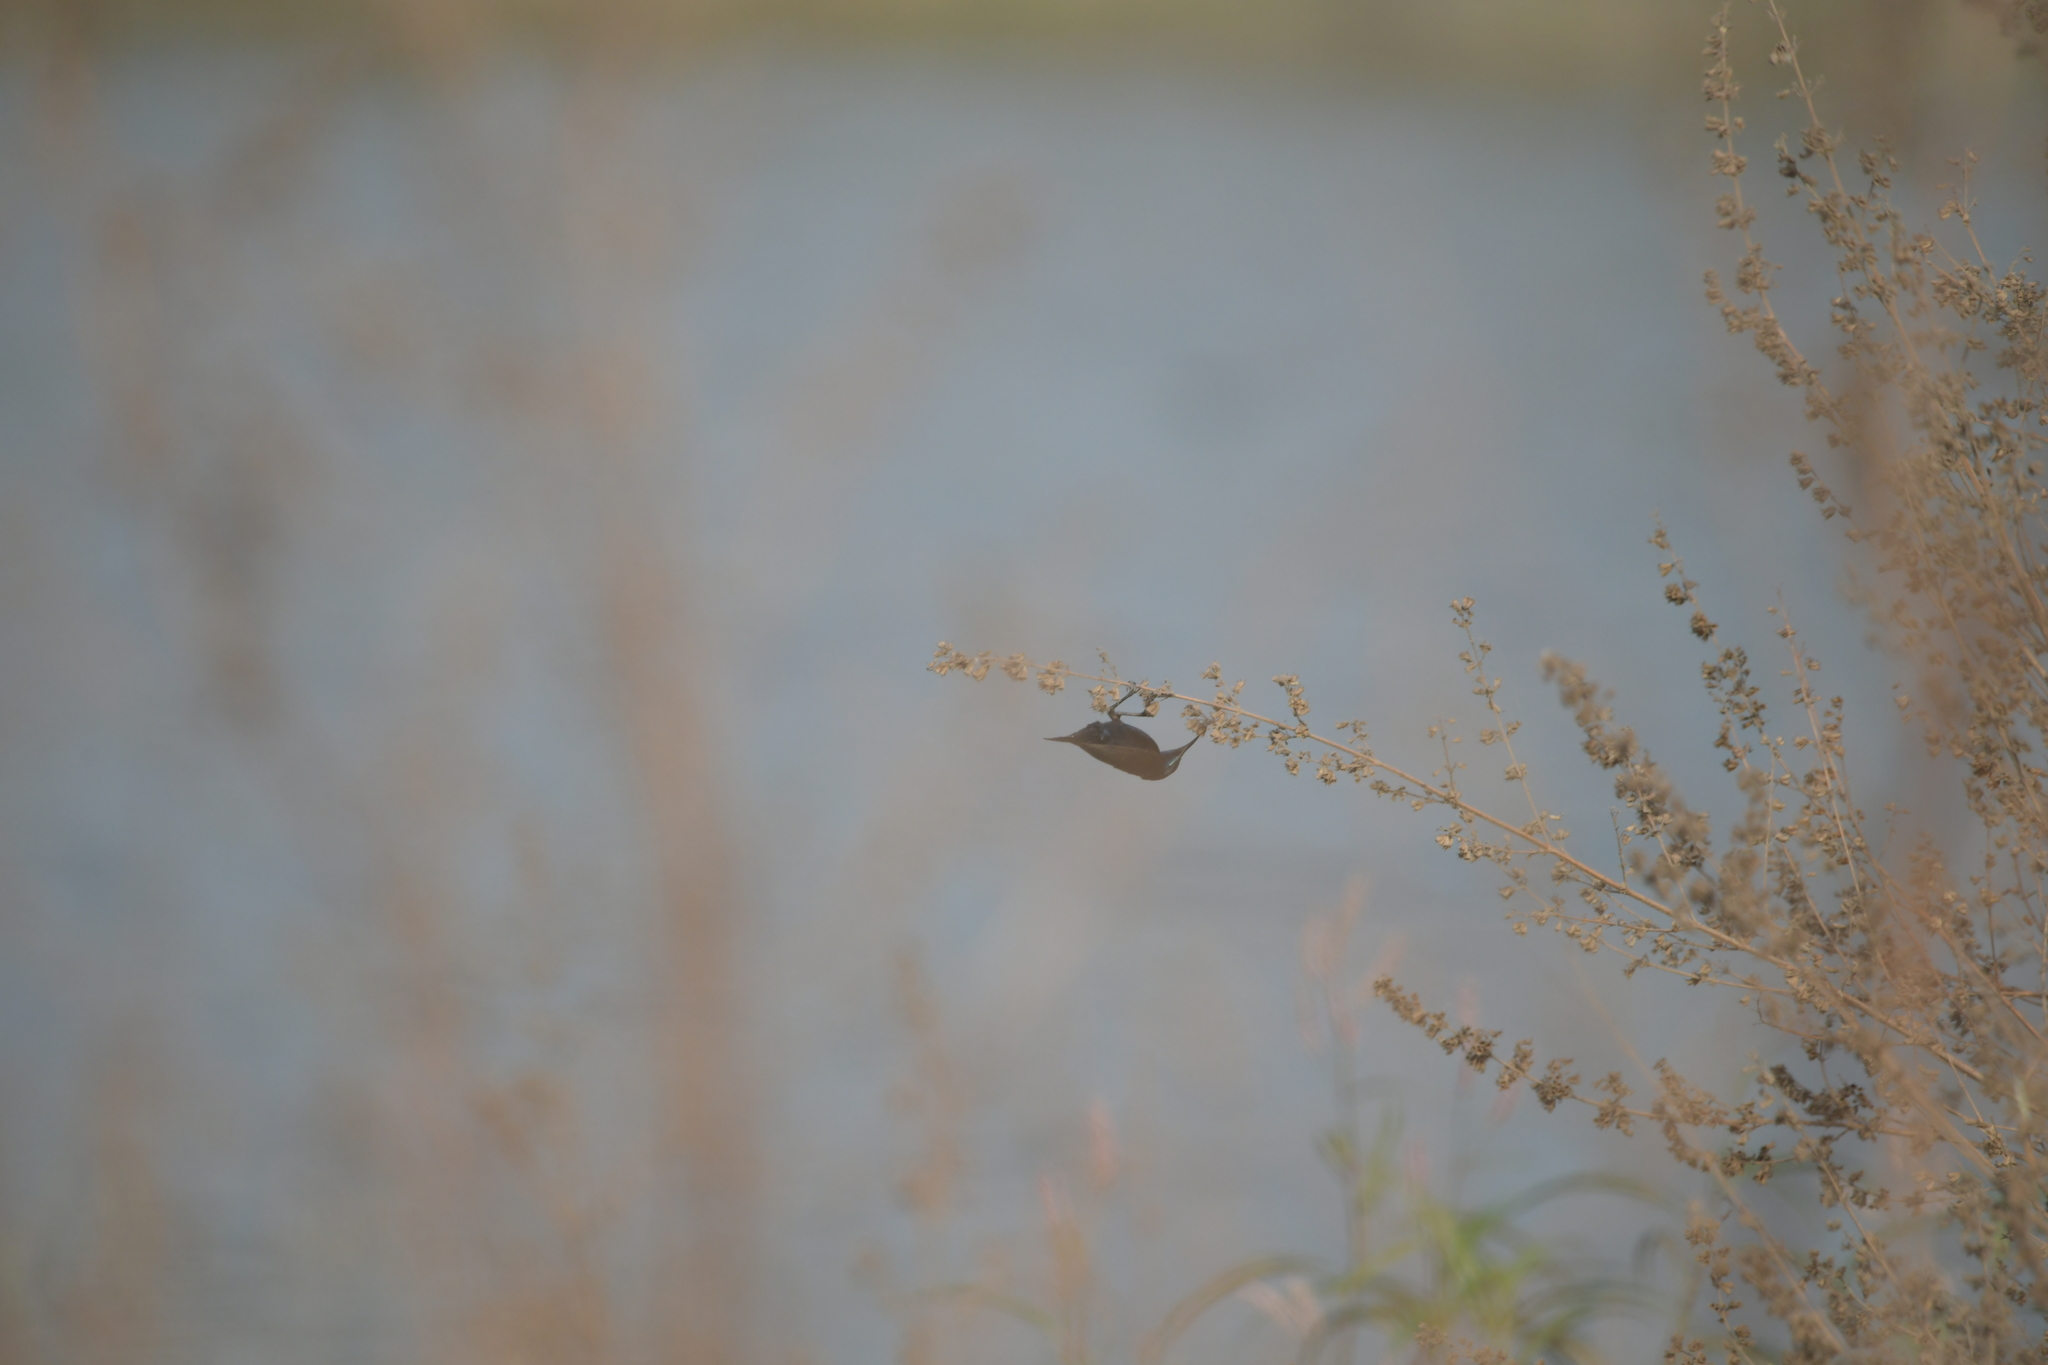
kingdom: Animalia
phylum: Chordata
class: Aves
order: Passeriformes
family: Nectariniidae
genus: Cinnyris
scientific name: Cinnyris asiaticus
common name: Purple sunbird
